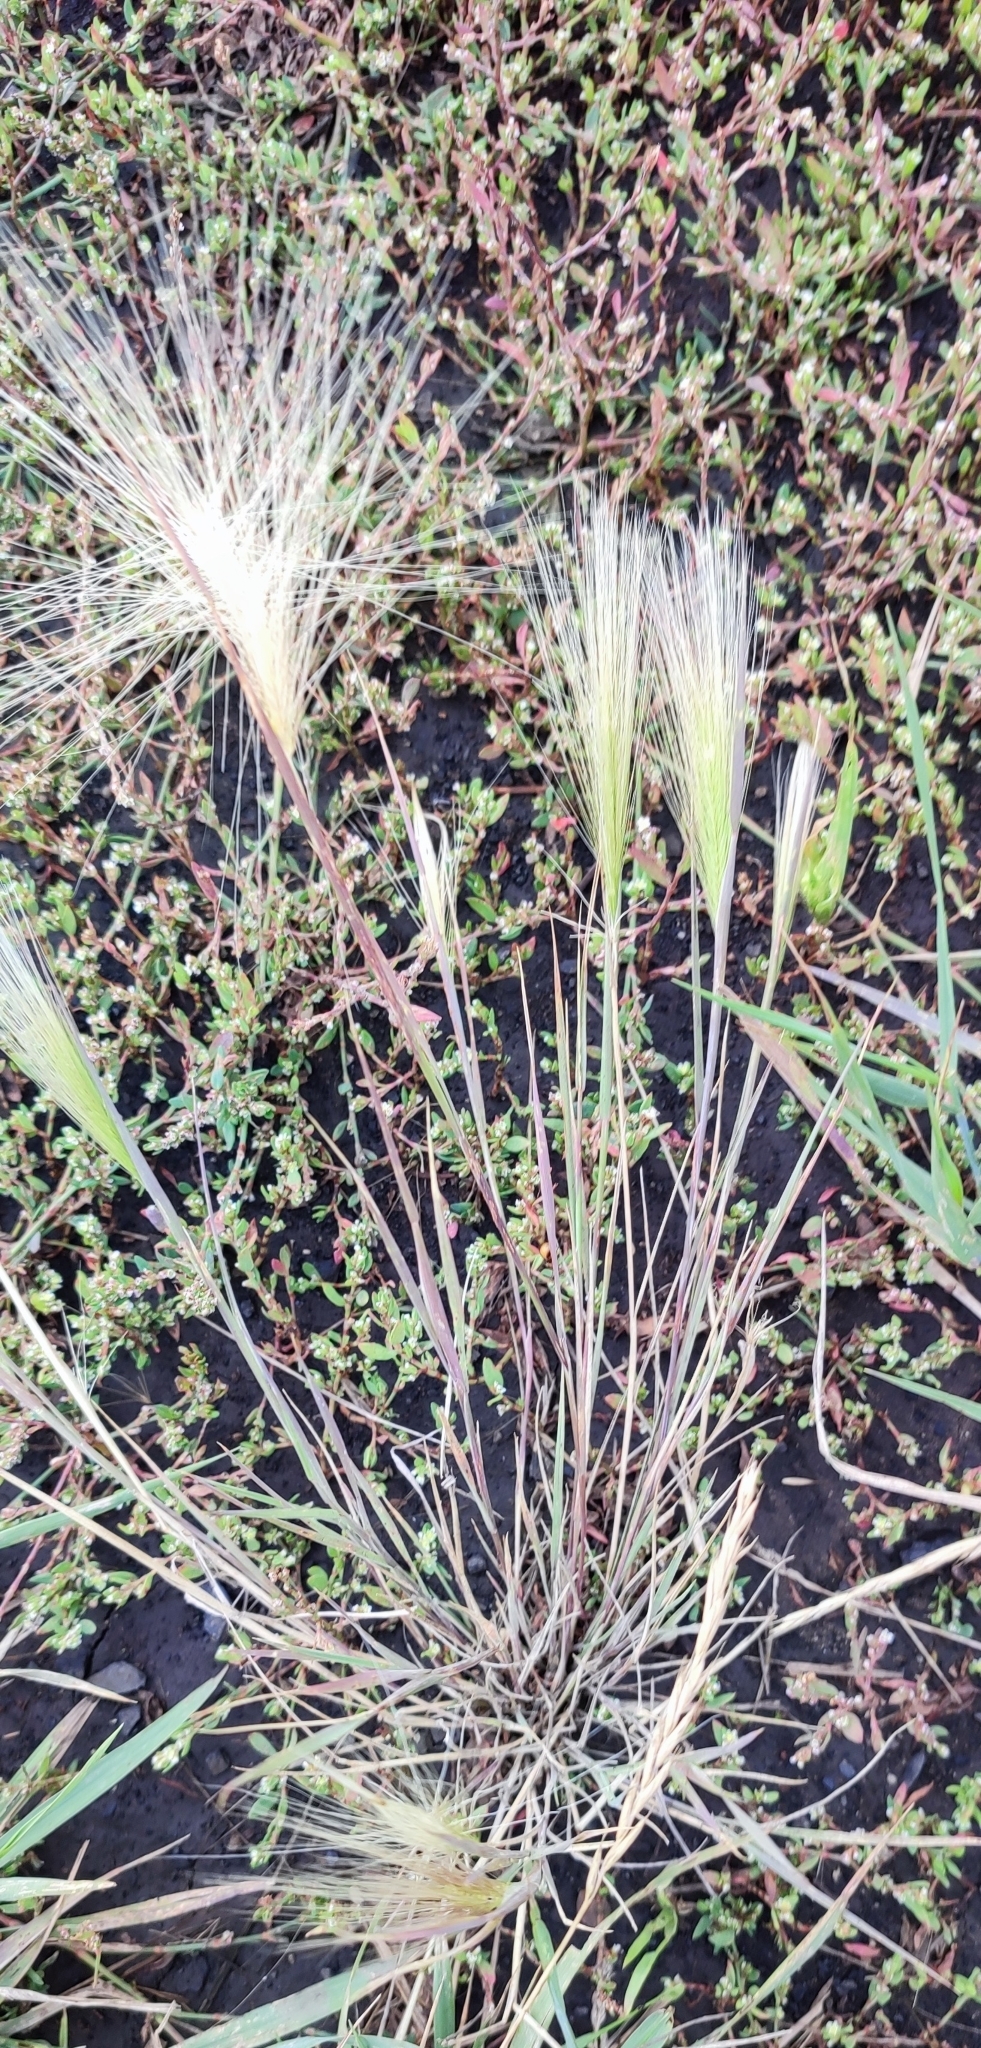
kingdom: Plantae
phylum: Tracheophyta
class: Liliopsida
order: Poales
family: Poaceae
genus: Hordeum
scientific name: Hordeum jubatum
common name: Foxtail barley
